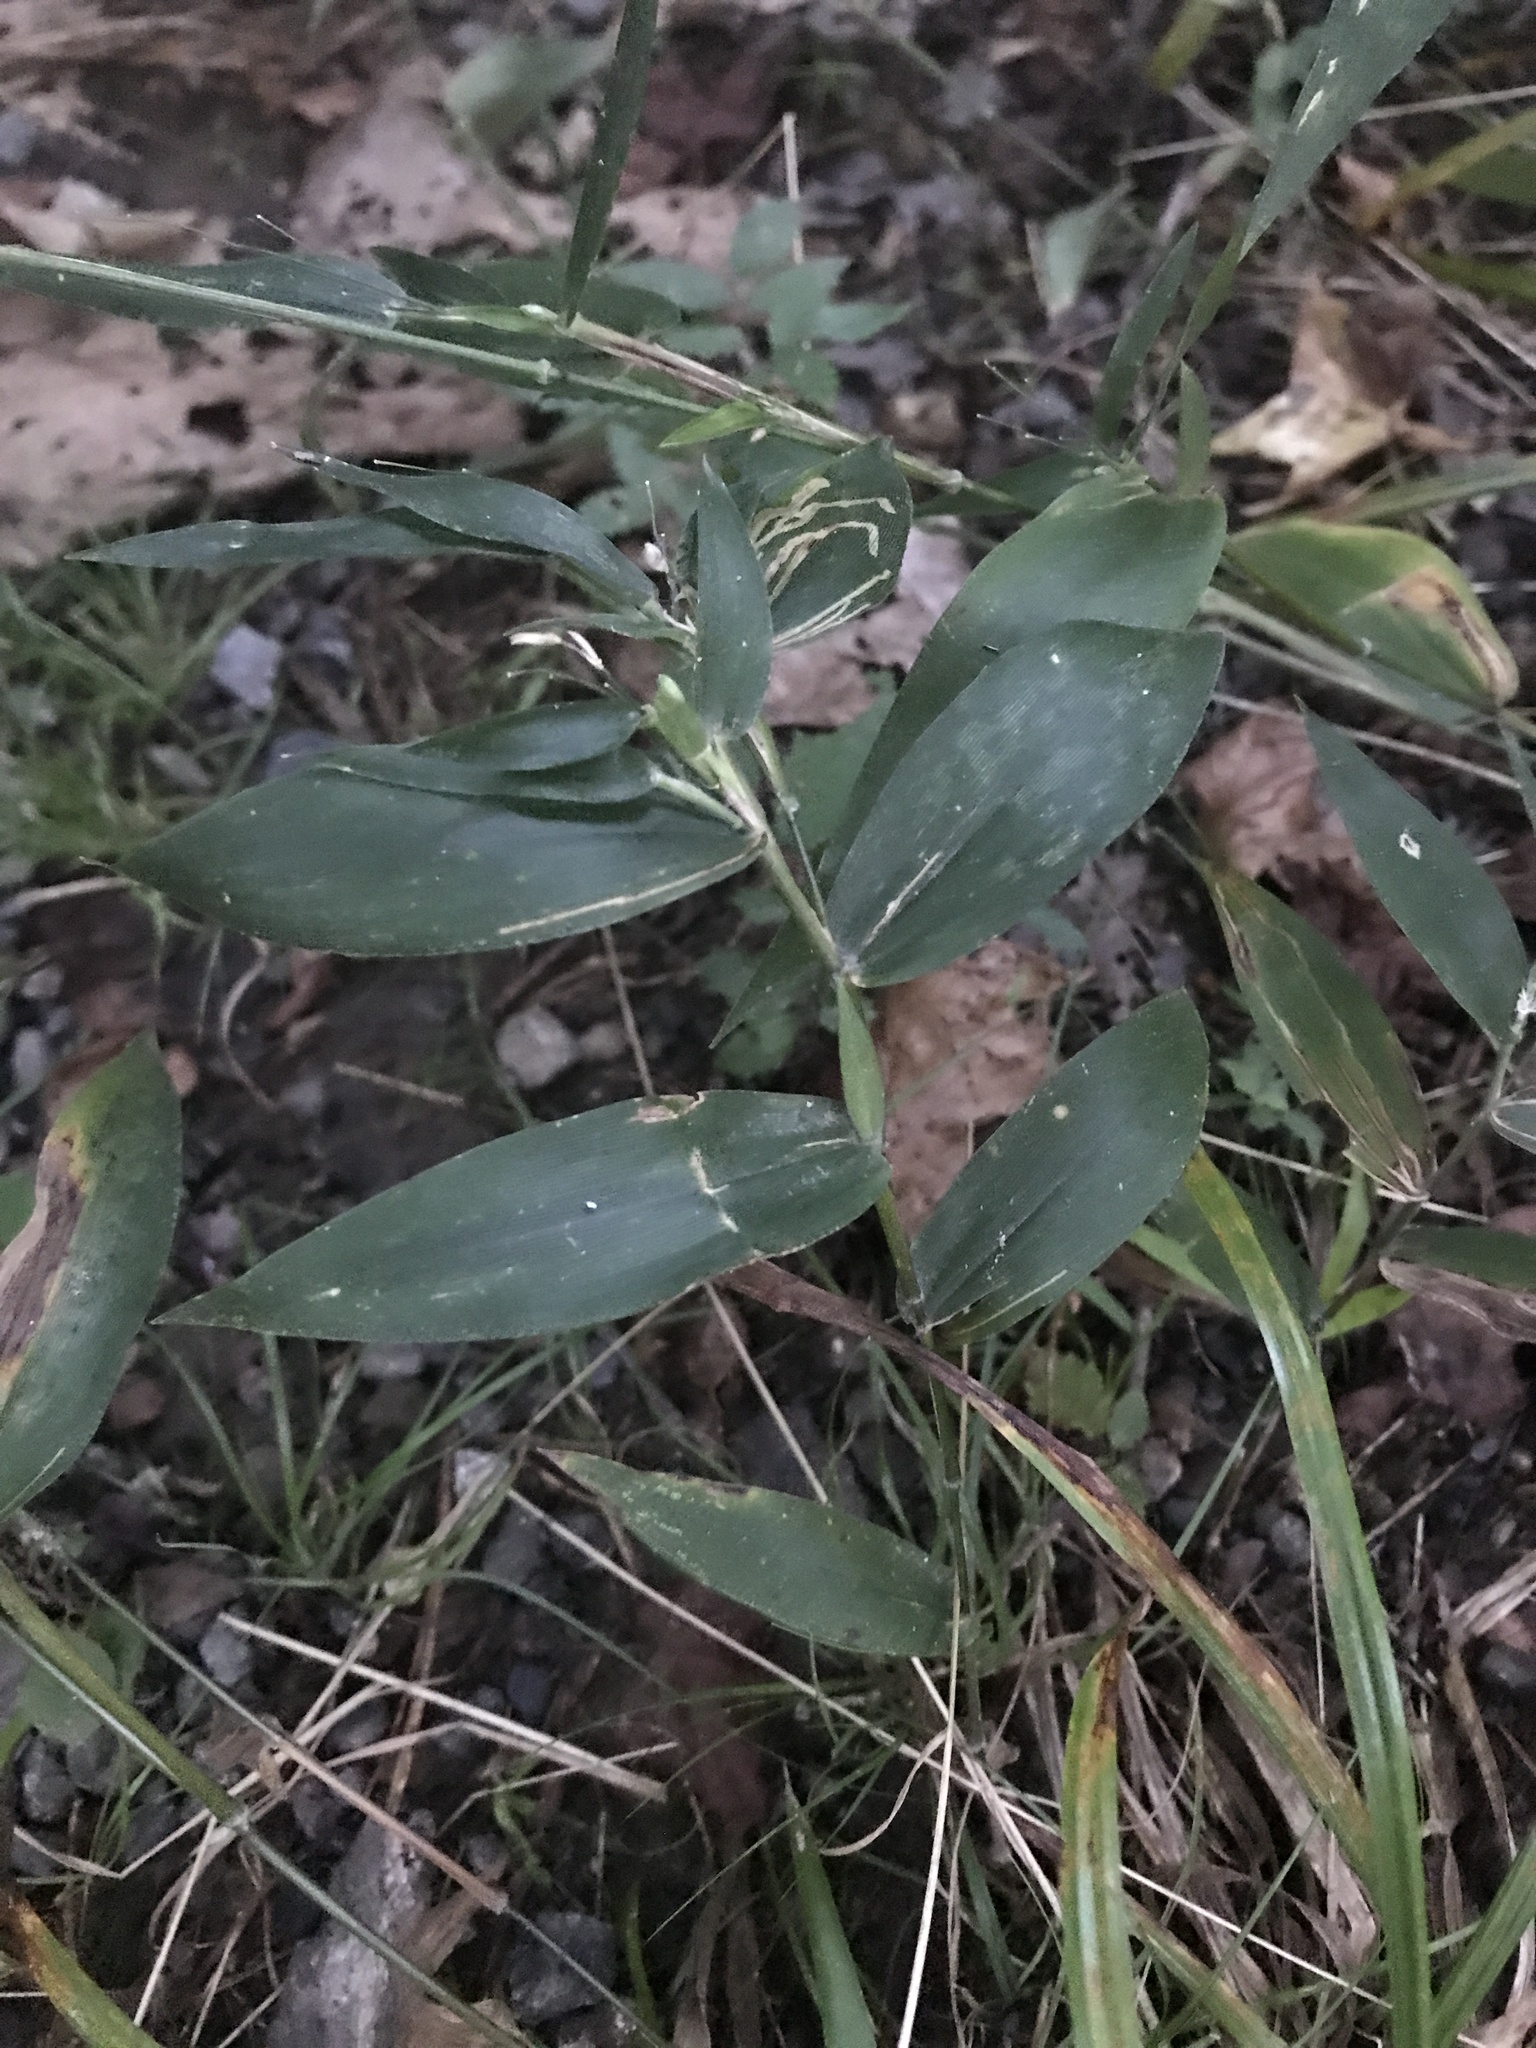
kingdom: Plantae
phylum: Tracheophyta
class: Liliopsida
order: Poales
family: Poaceae
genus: Dichanthelium
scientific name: Dichanthelium boscii
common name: Bosc's panic grass
